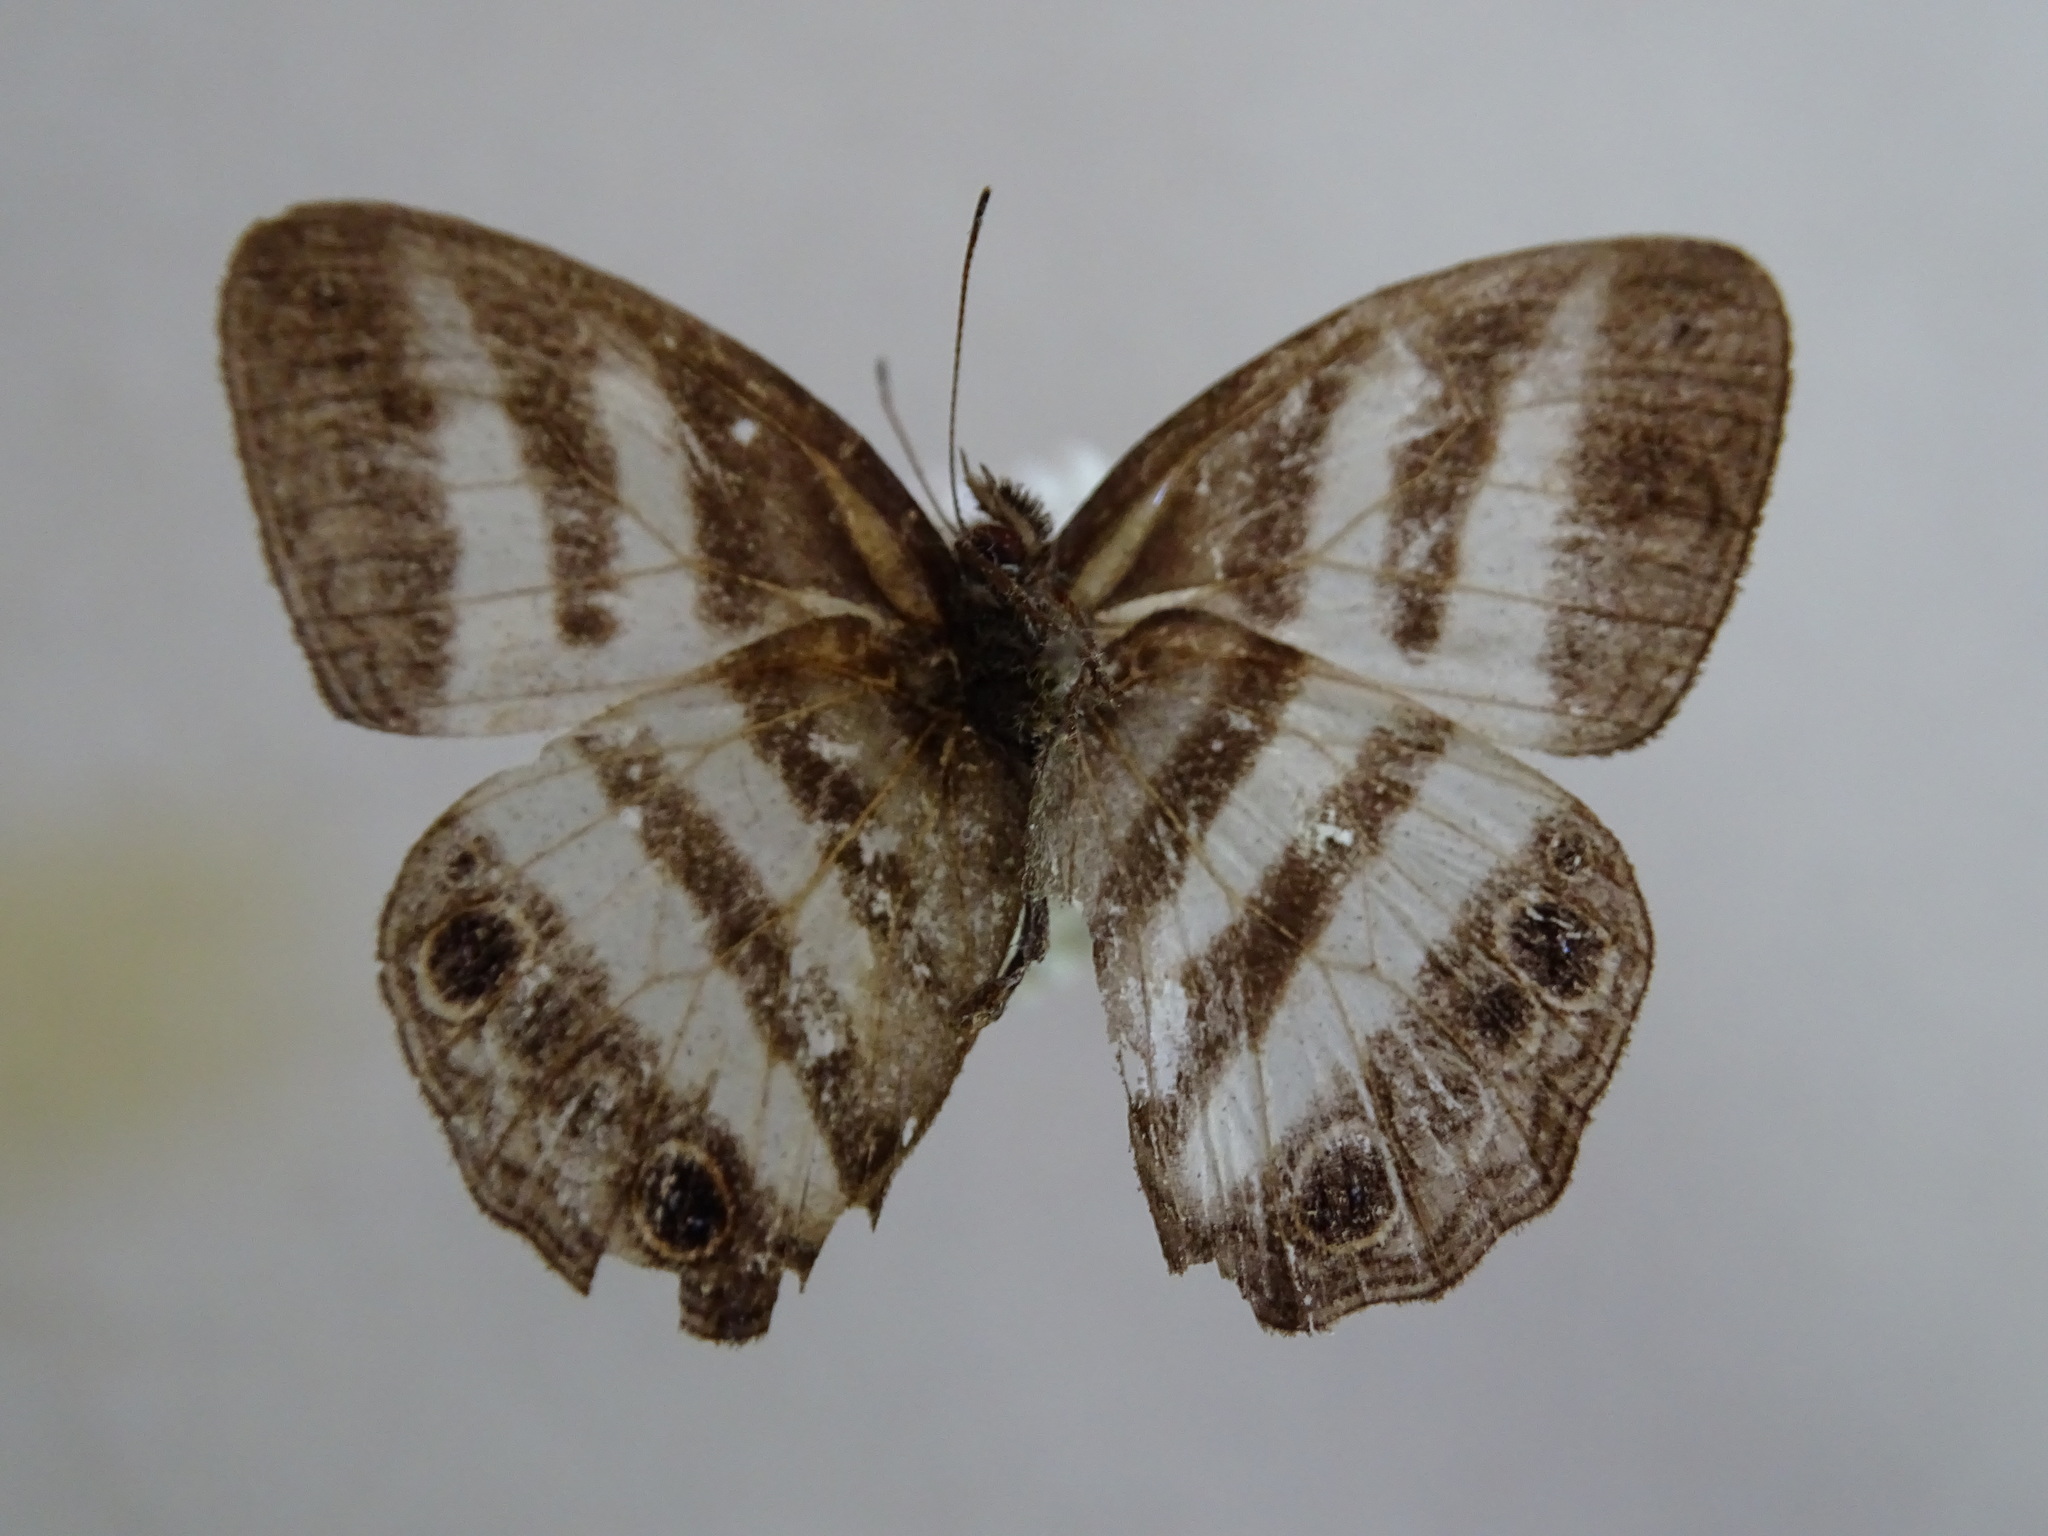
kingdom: Animalia
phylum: Arthropoda
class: Insecta
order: Lepidoptera
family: Nymphalidae
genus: Pareuptychia
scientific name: Pareuptychia hesione
